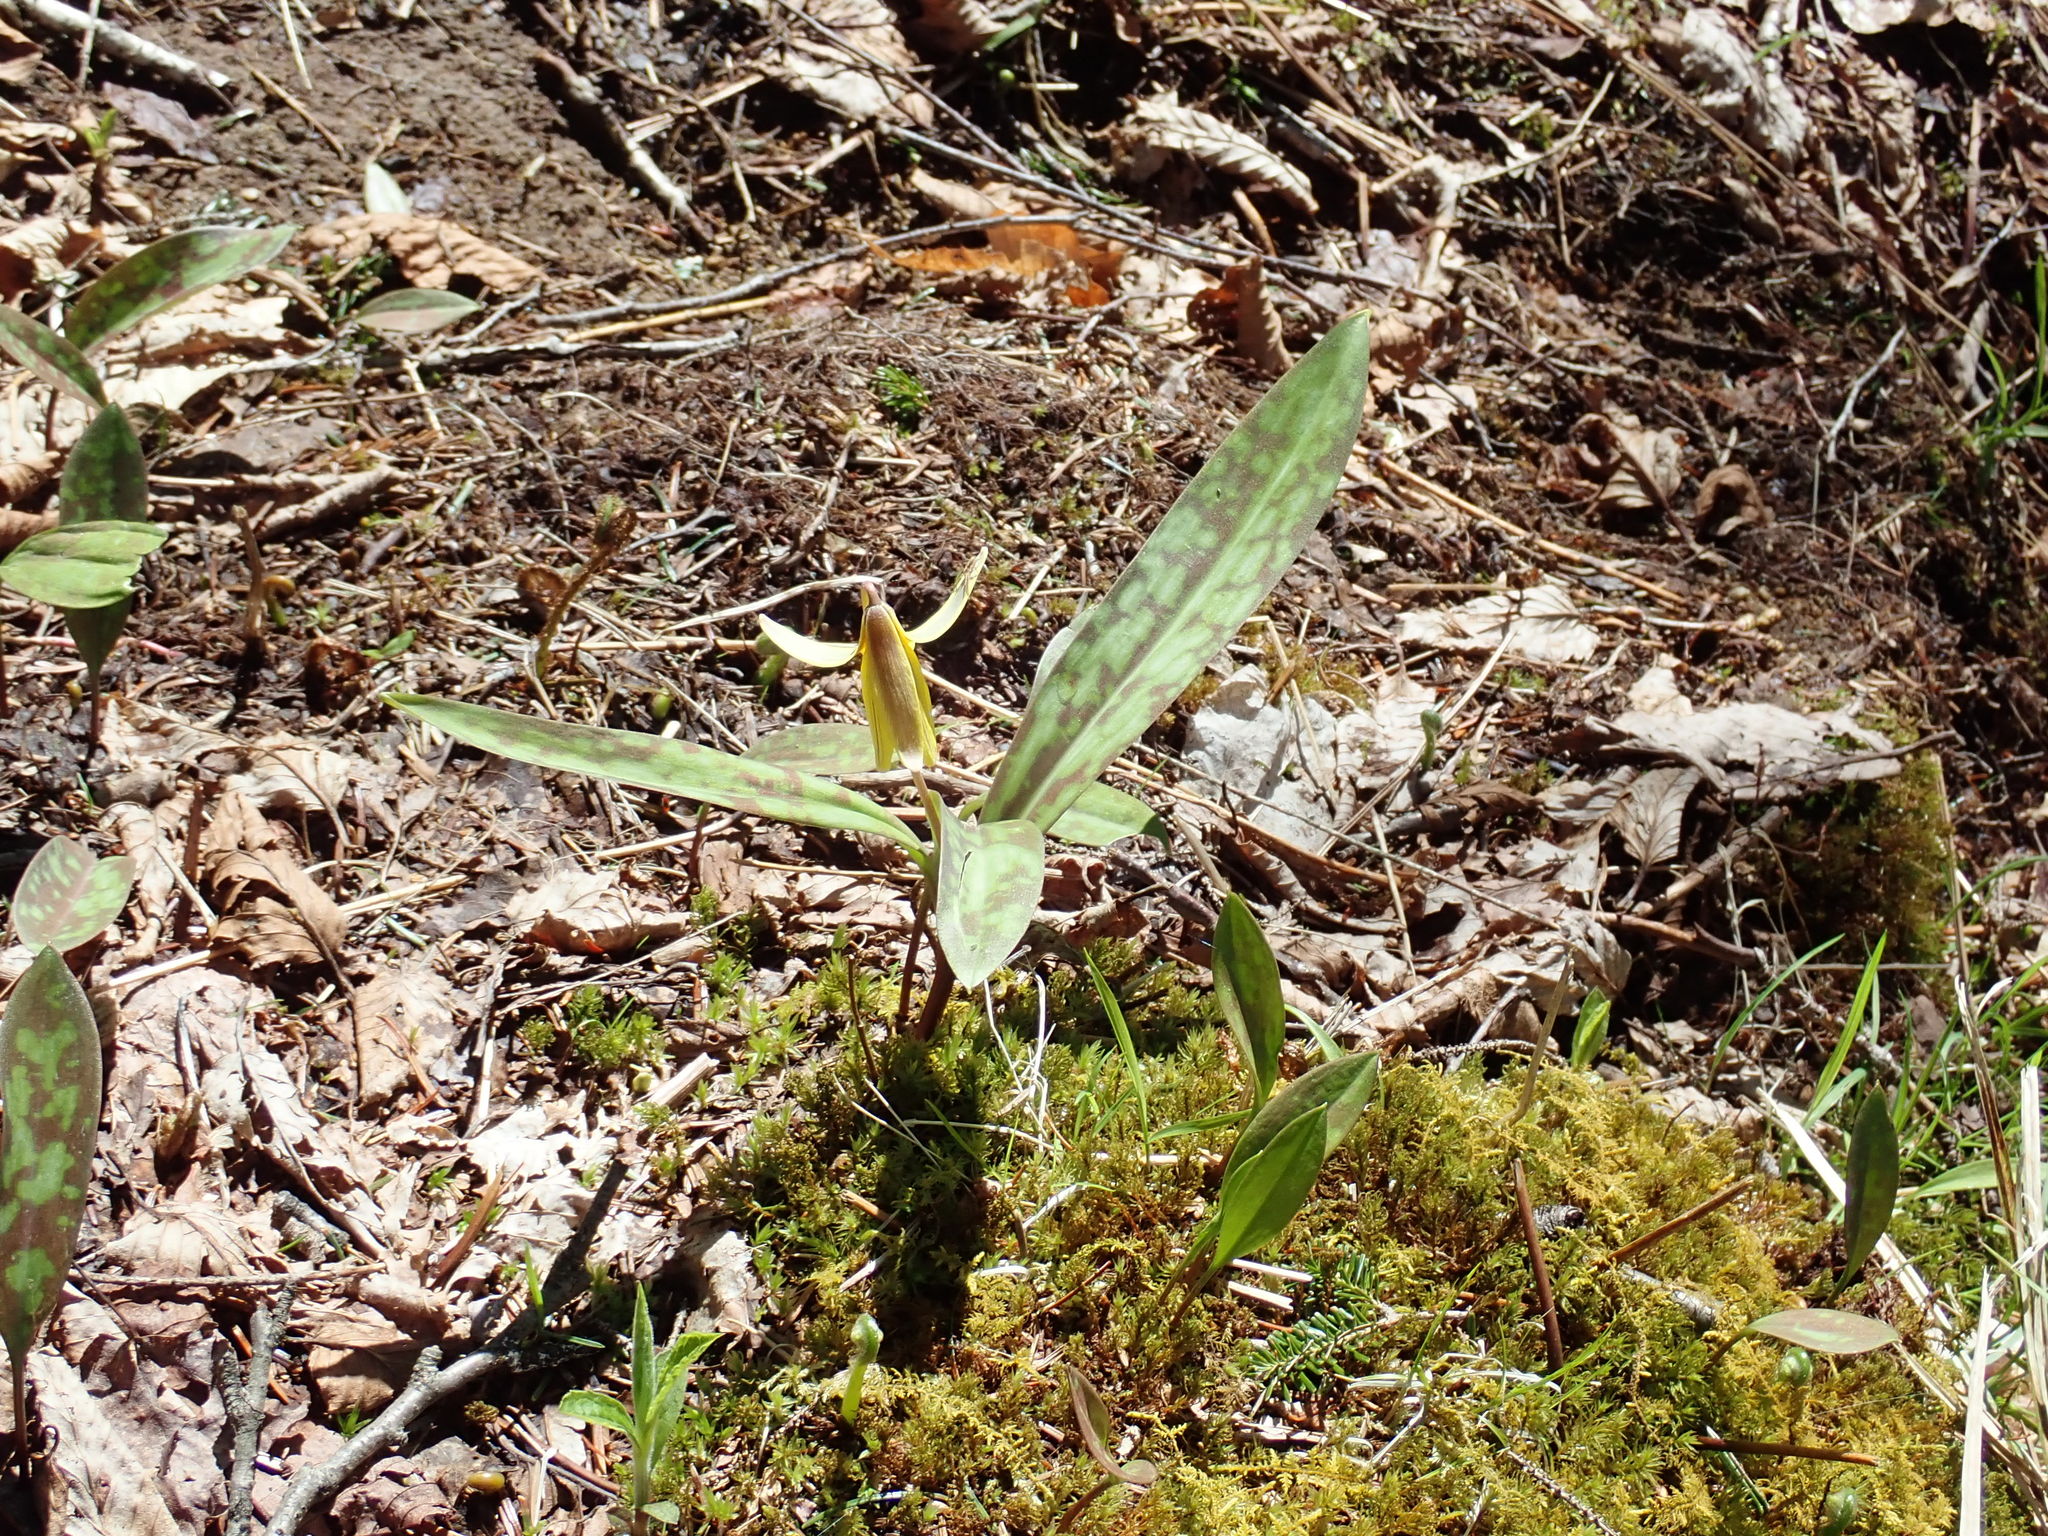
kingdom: Plantae
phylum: Tracheophyta
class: Liliopsida
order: Liliales
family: Liliaceae
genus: Erythronium
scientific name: Erythronium americanum
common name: Yellow adder's-tongue
